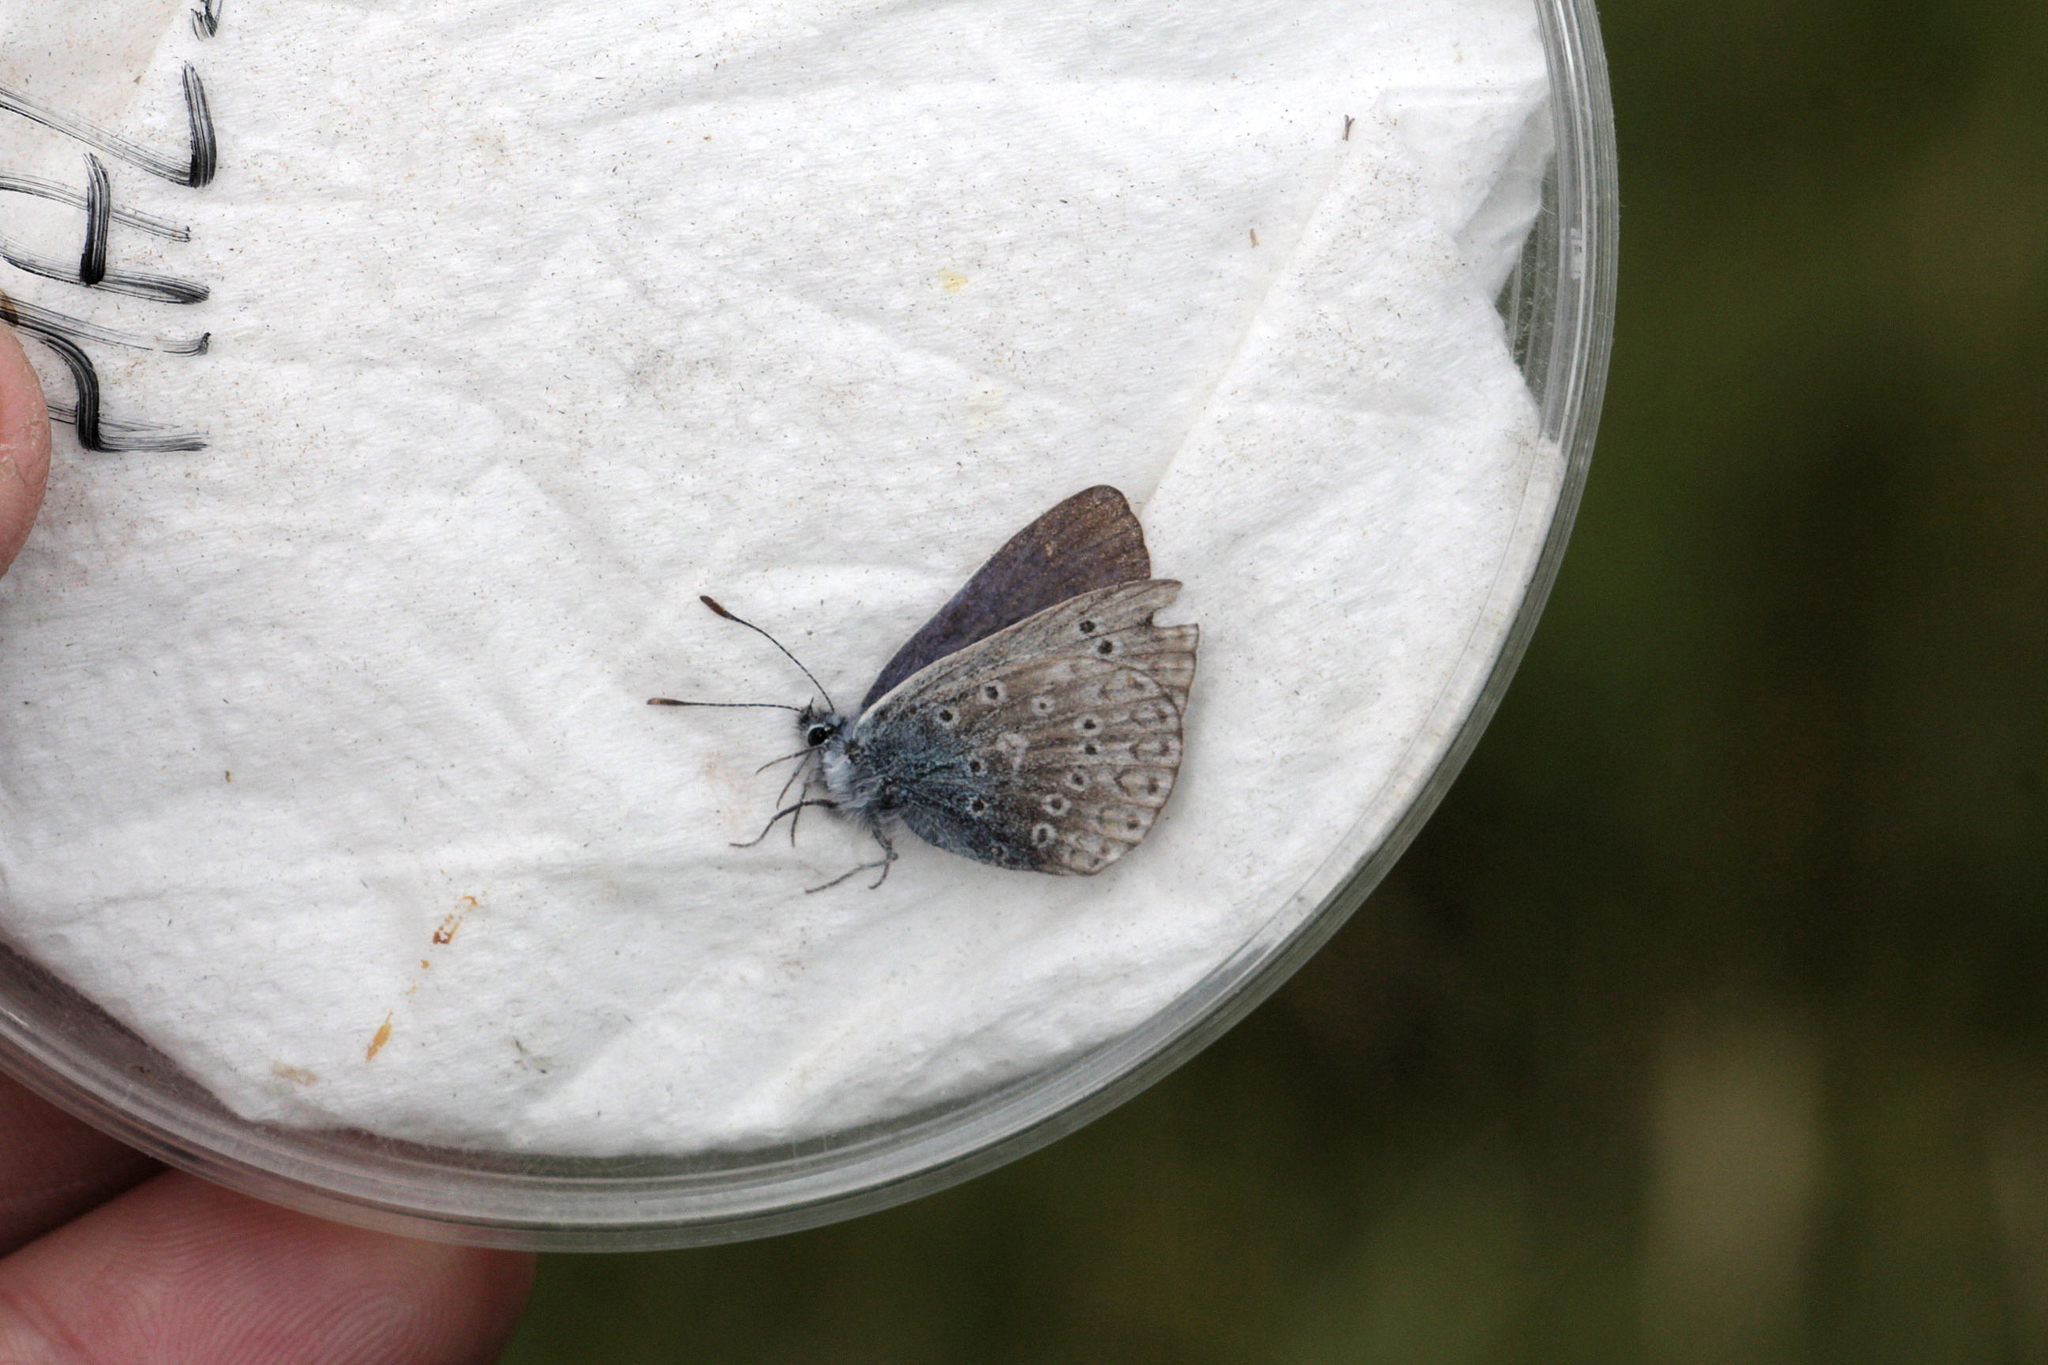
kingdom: Animalia
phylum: Arthropoda
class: Insecta
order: Lepidoptera
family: Lycaenidae
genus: Polyommatus
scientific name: Polyommatus icarus
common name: Common blue
